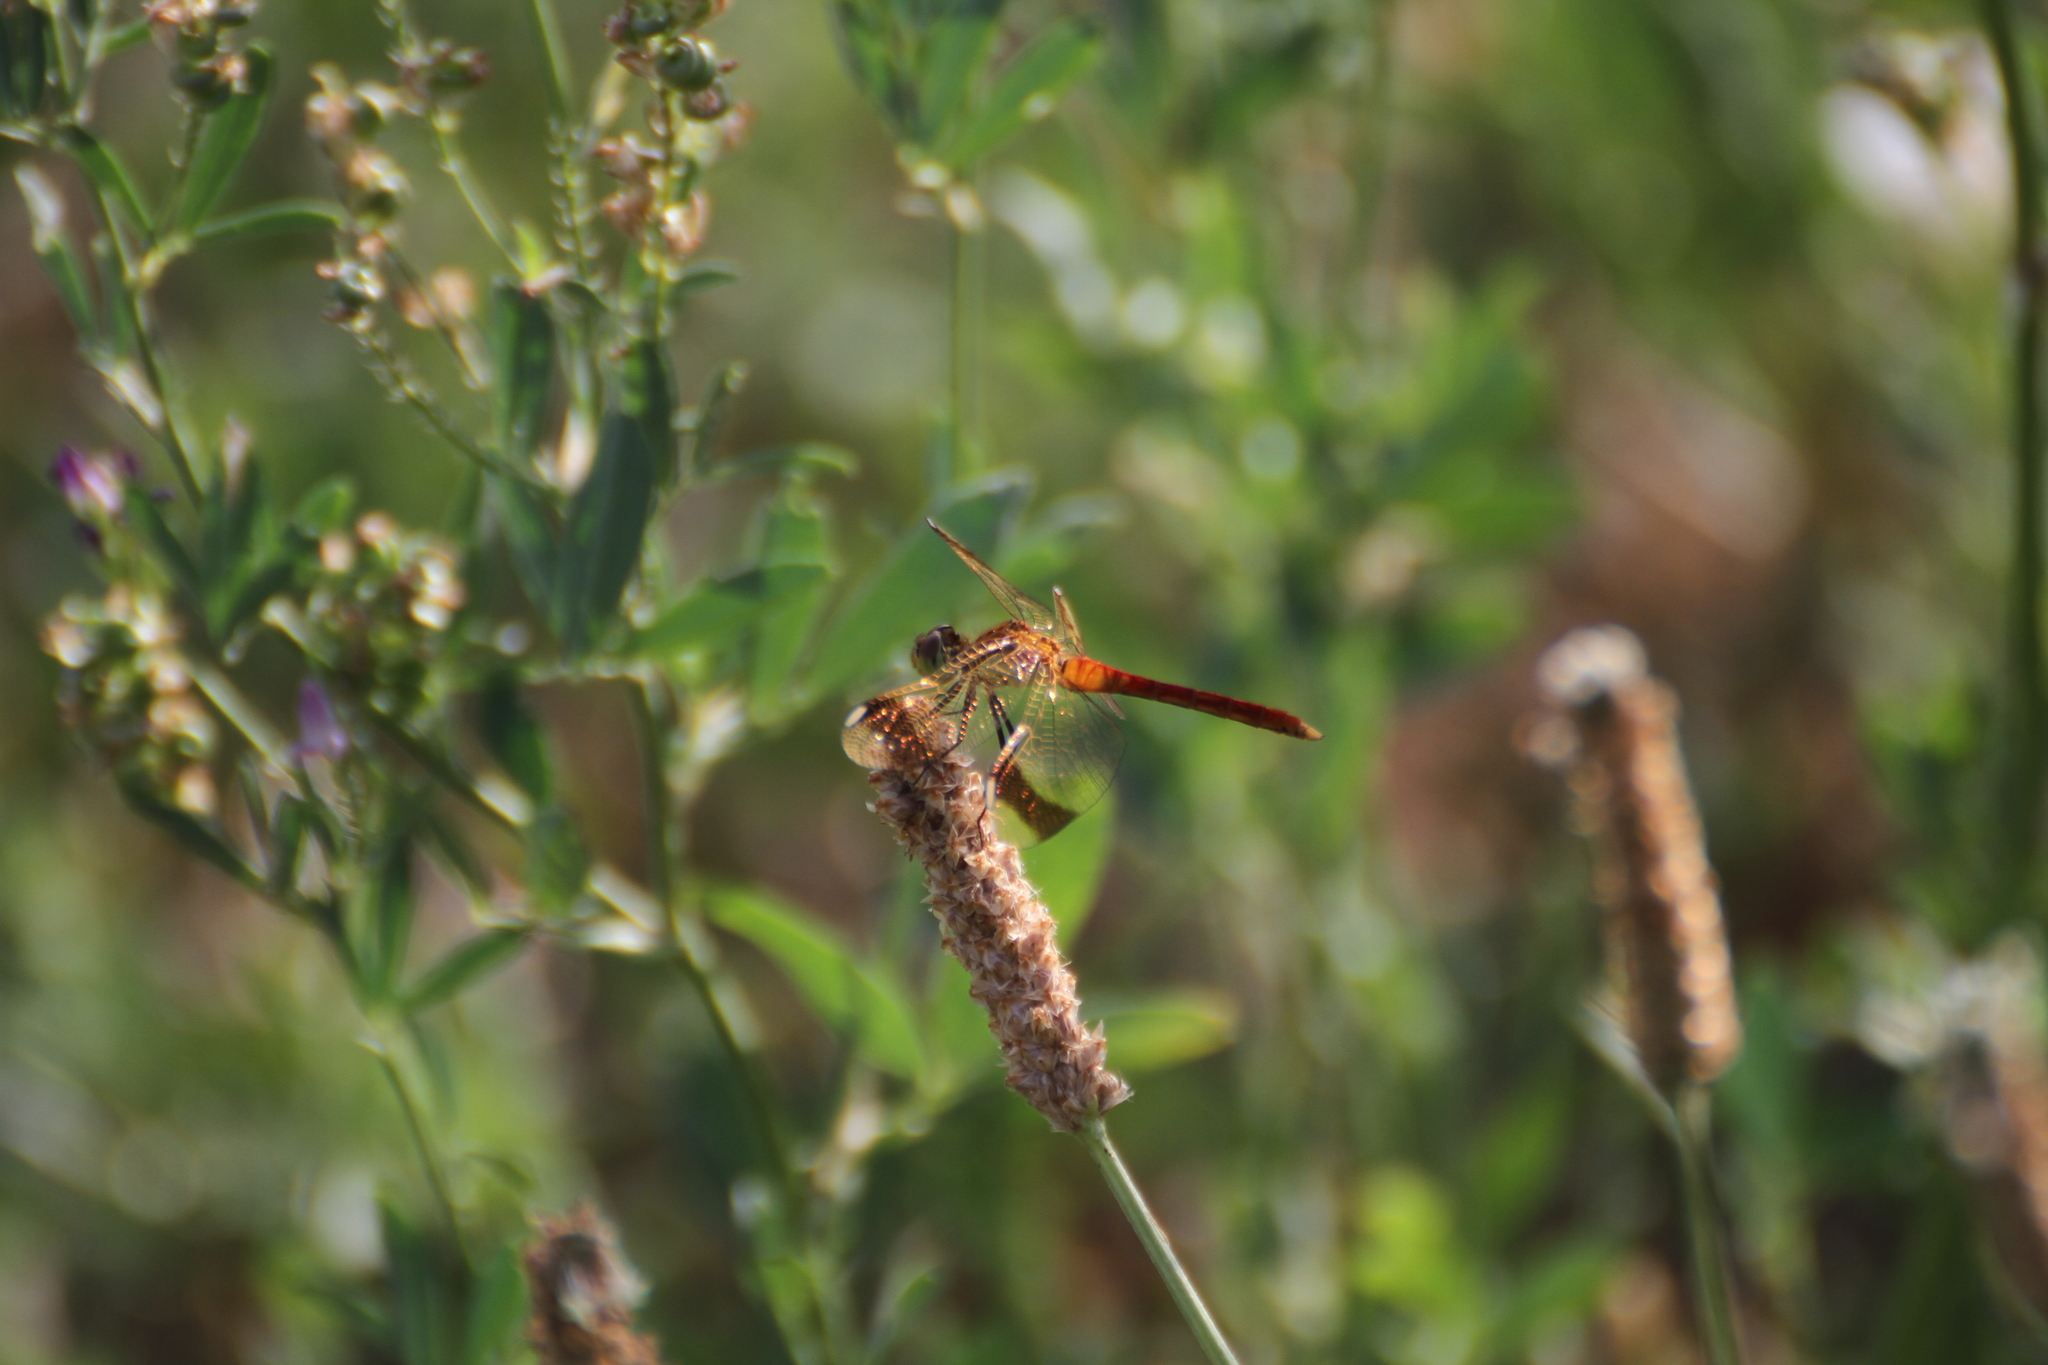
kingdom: Animalia
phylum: Arthropoda
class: Insecta
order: Odonata
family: Libellulidae
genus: Sympetrum
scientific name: Sympetrum pedemontanum
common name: Banded darter
